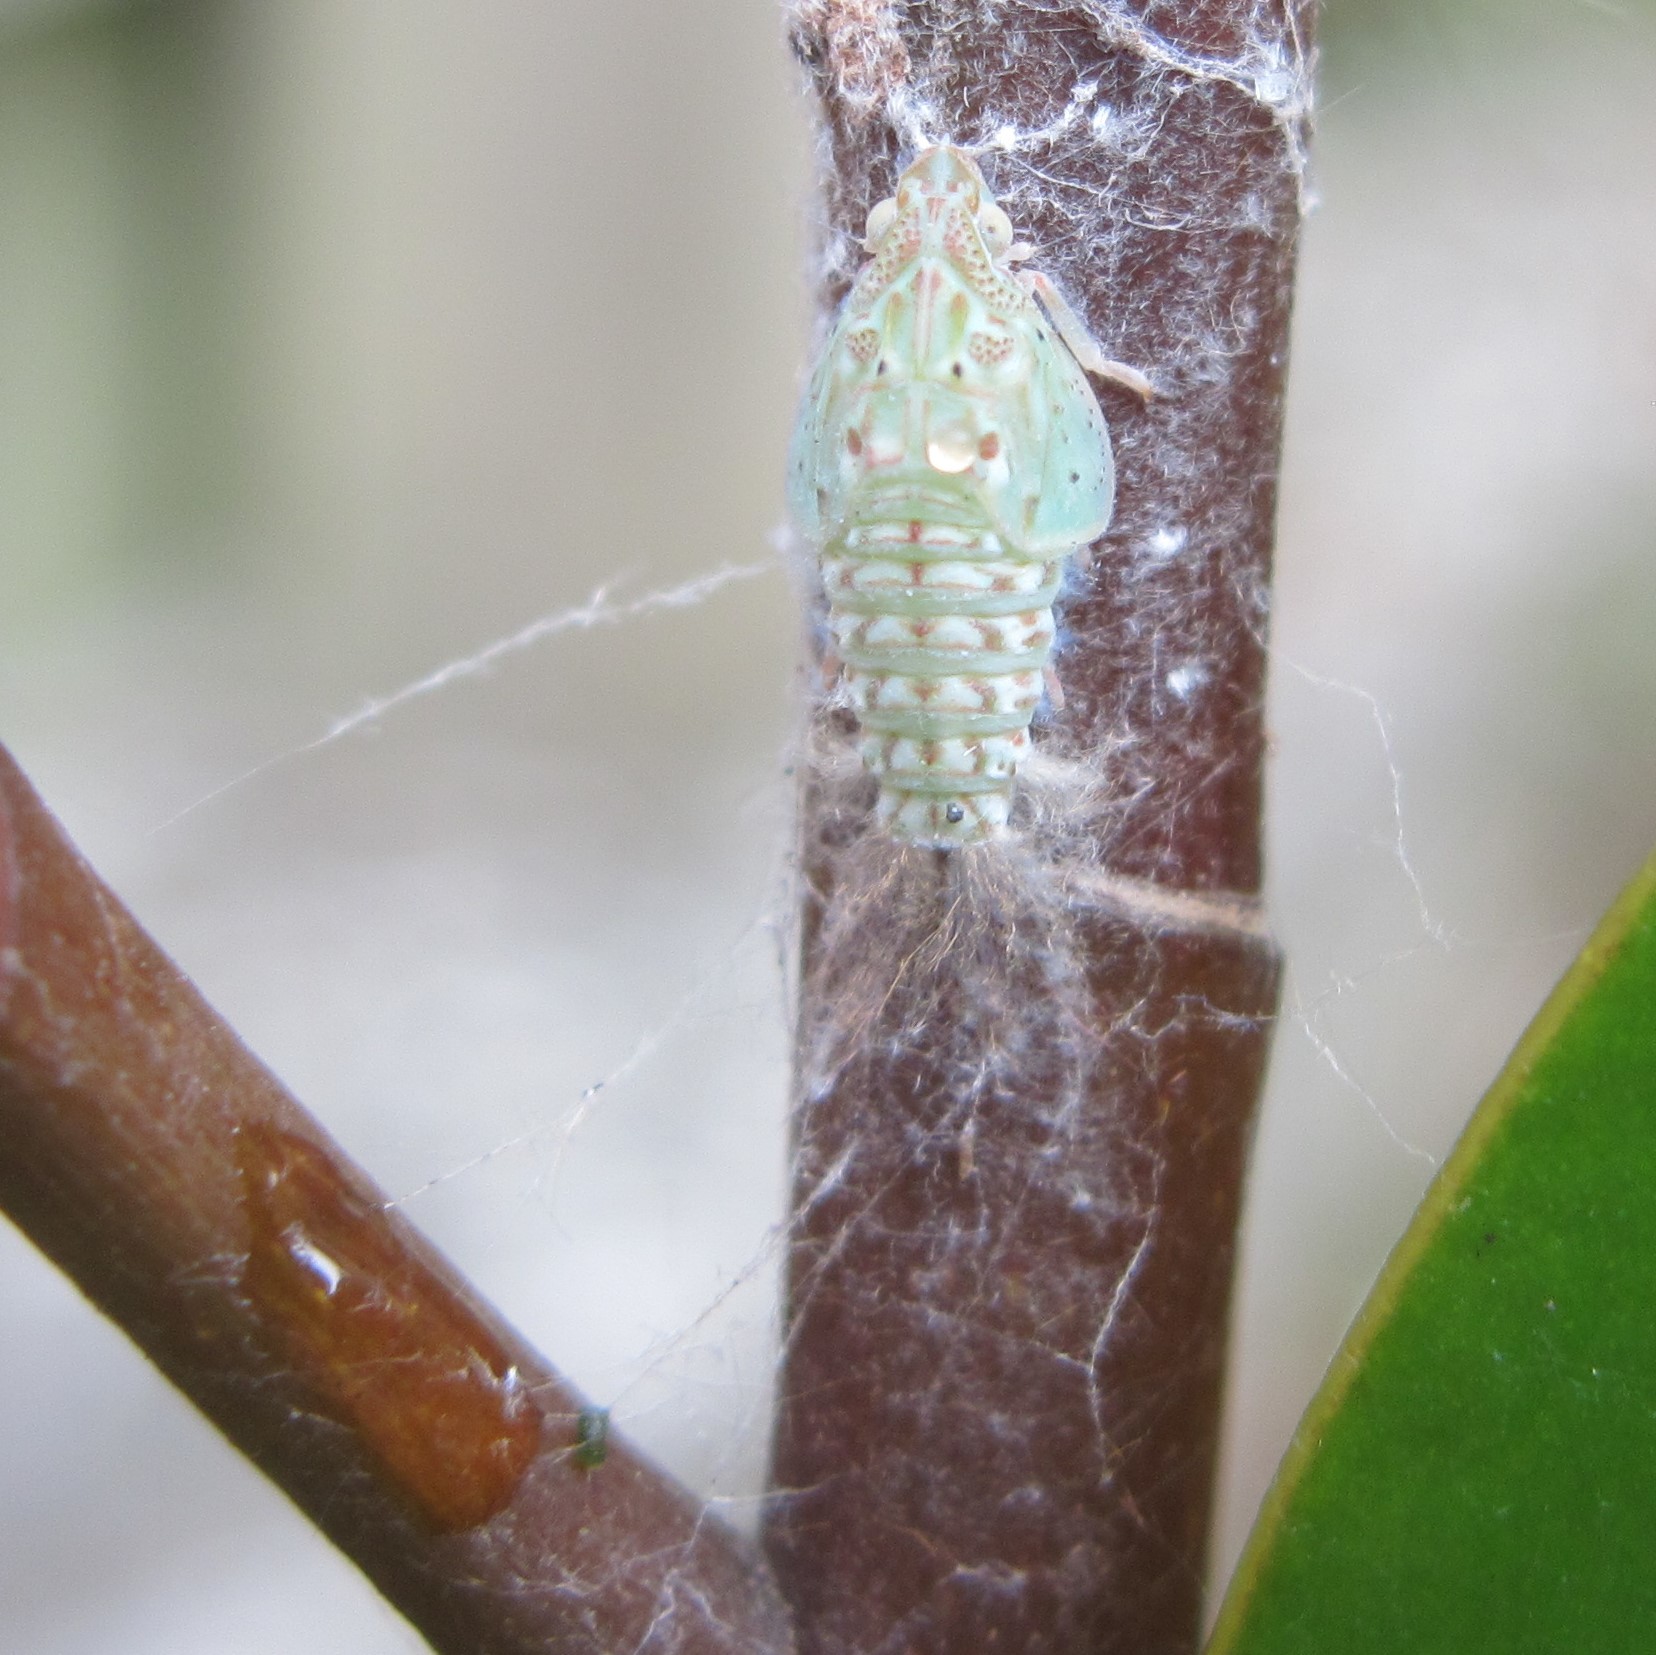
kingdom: Animalia
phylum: Arthropoda
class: Insecta
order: Hemiptera
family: Flatidae
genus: Siphanta
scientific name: Siphanta acuta
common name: Torpedo bug
